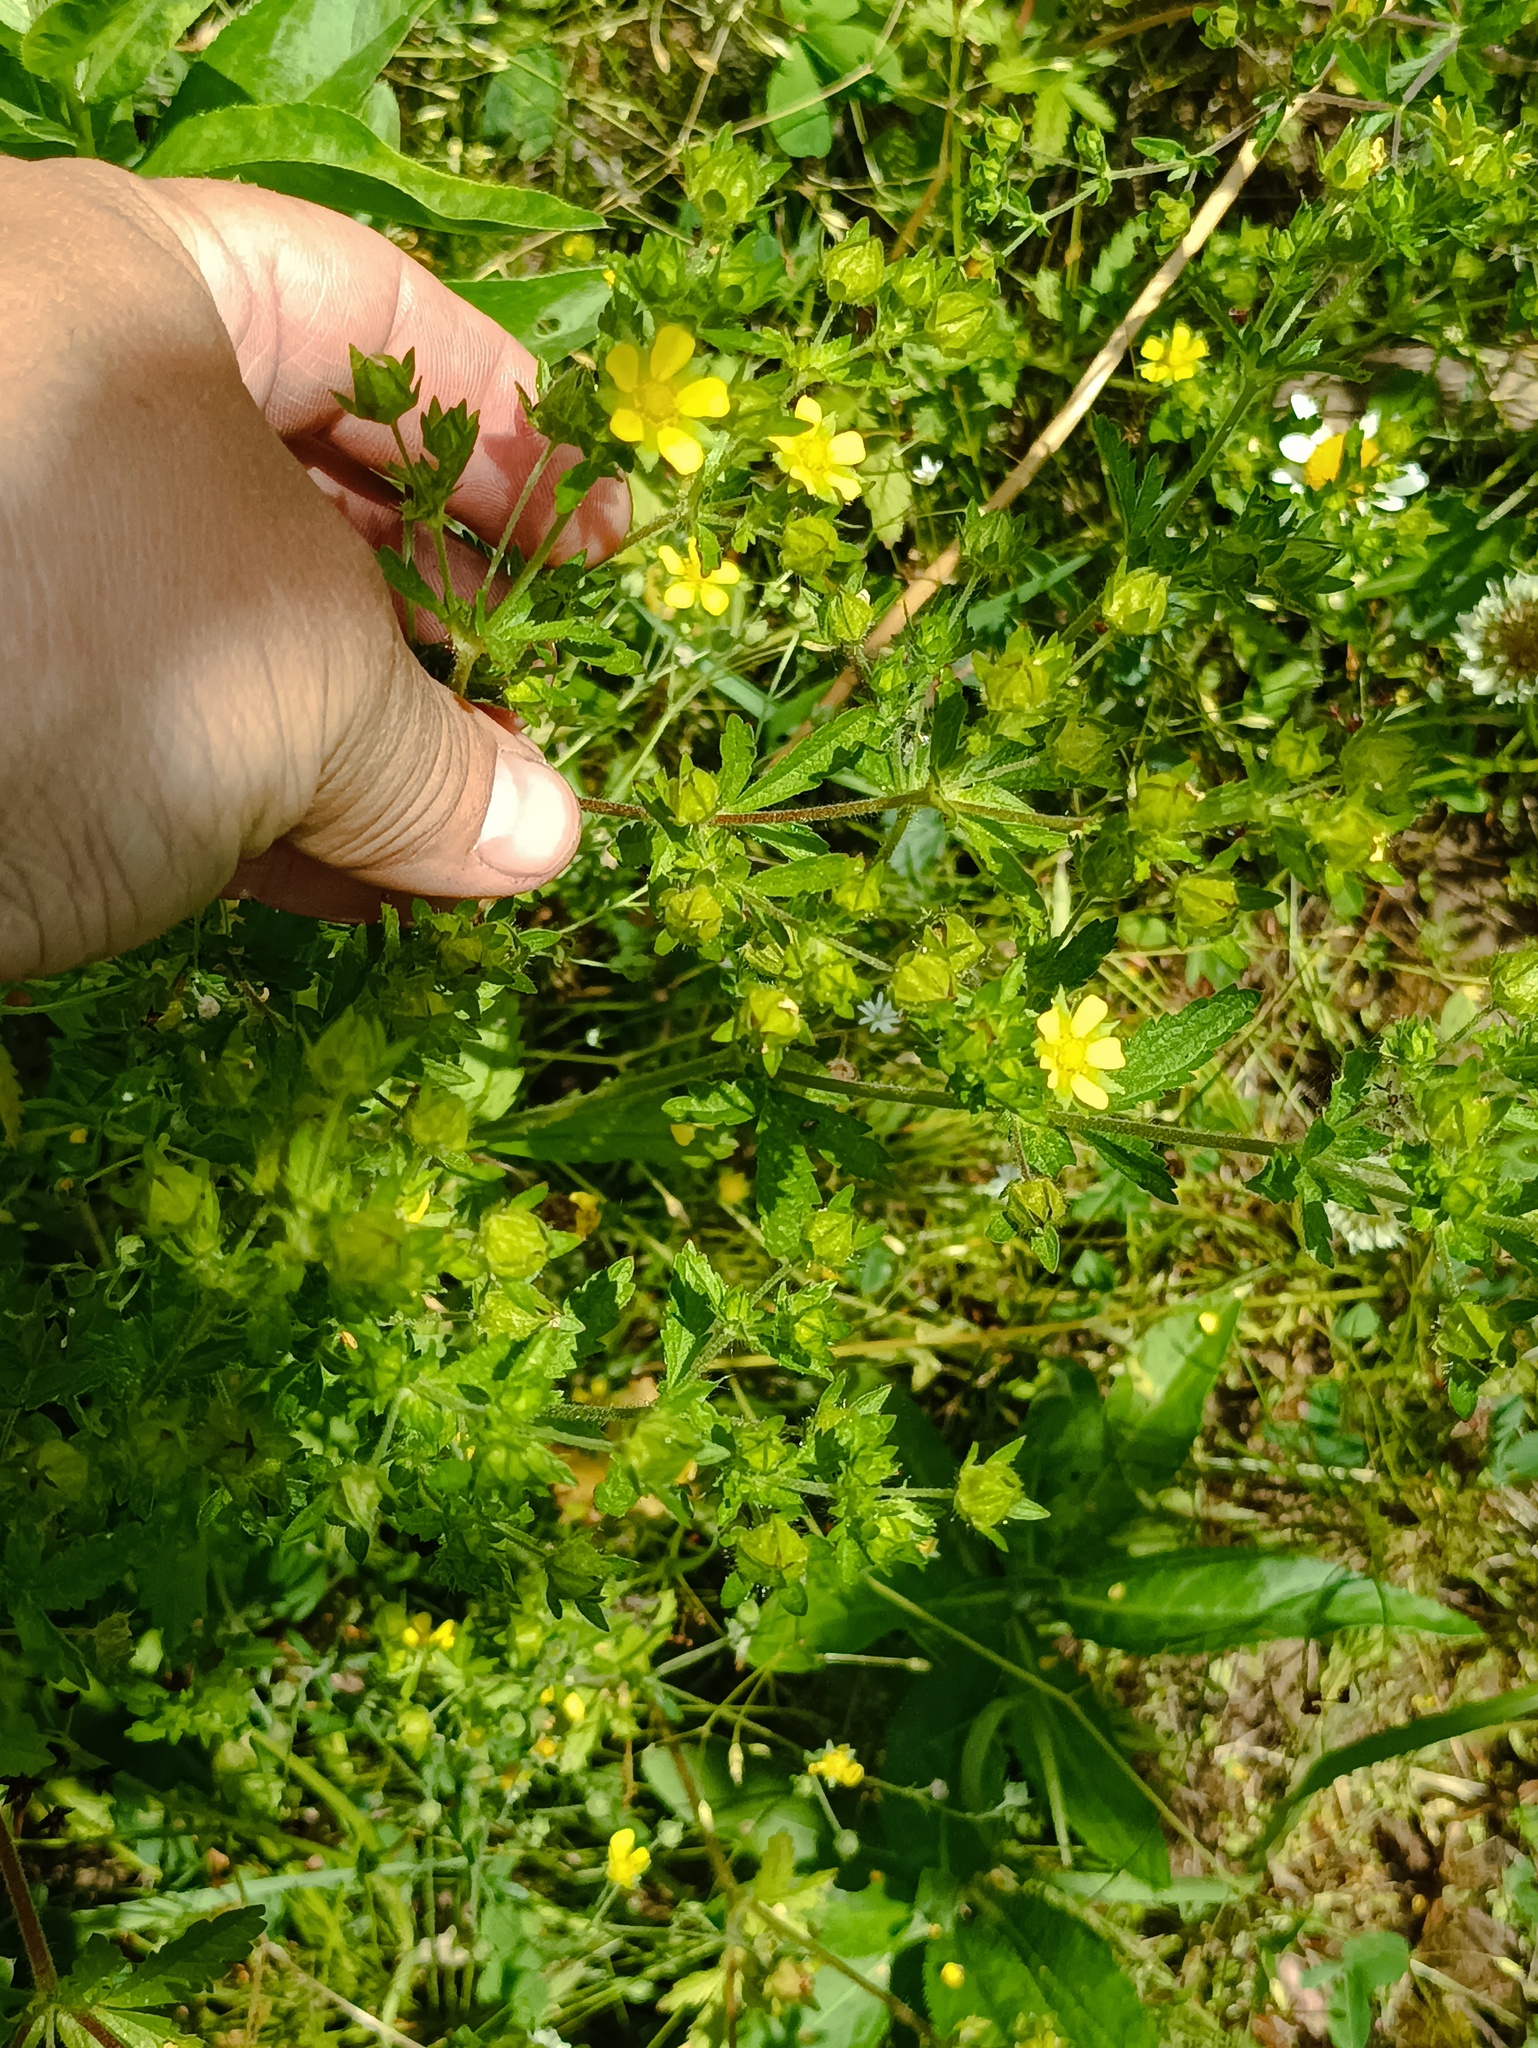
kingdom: Plantae
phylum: Tracheophyta
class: Magnoliopsida
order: Rosales
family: Rosaceae
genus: Potentilla
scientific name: Potentilla norvegica
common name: Ternate-leaved cinquefoil
